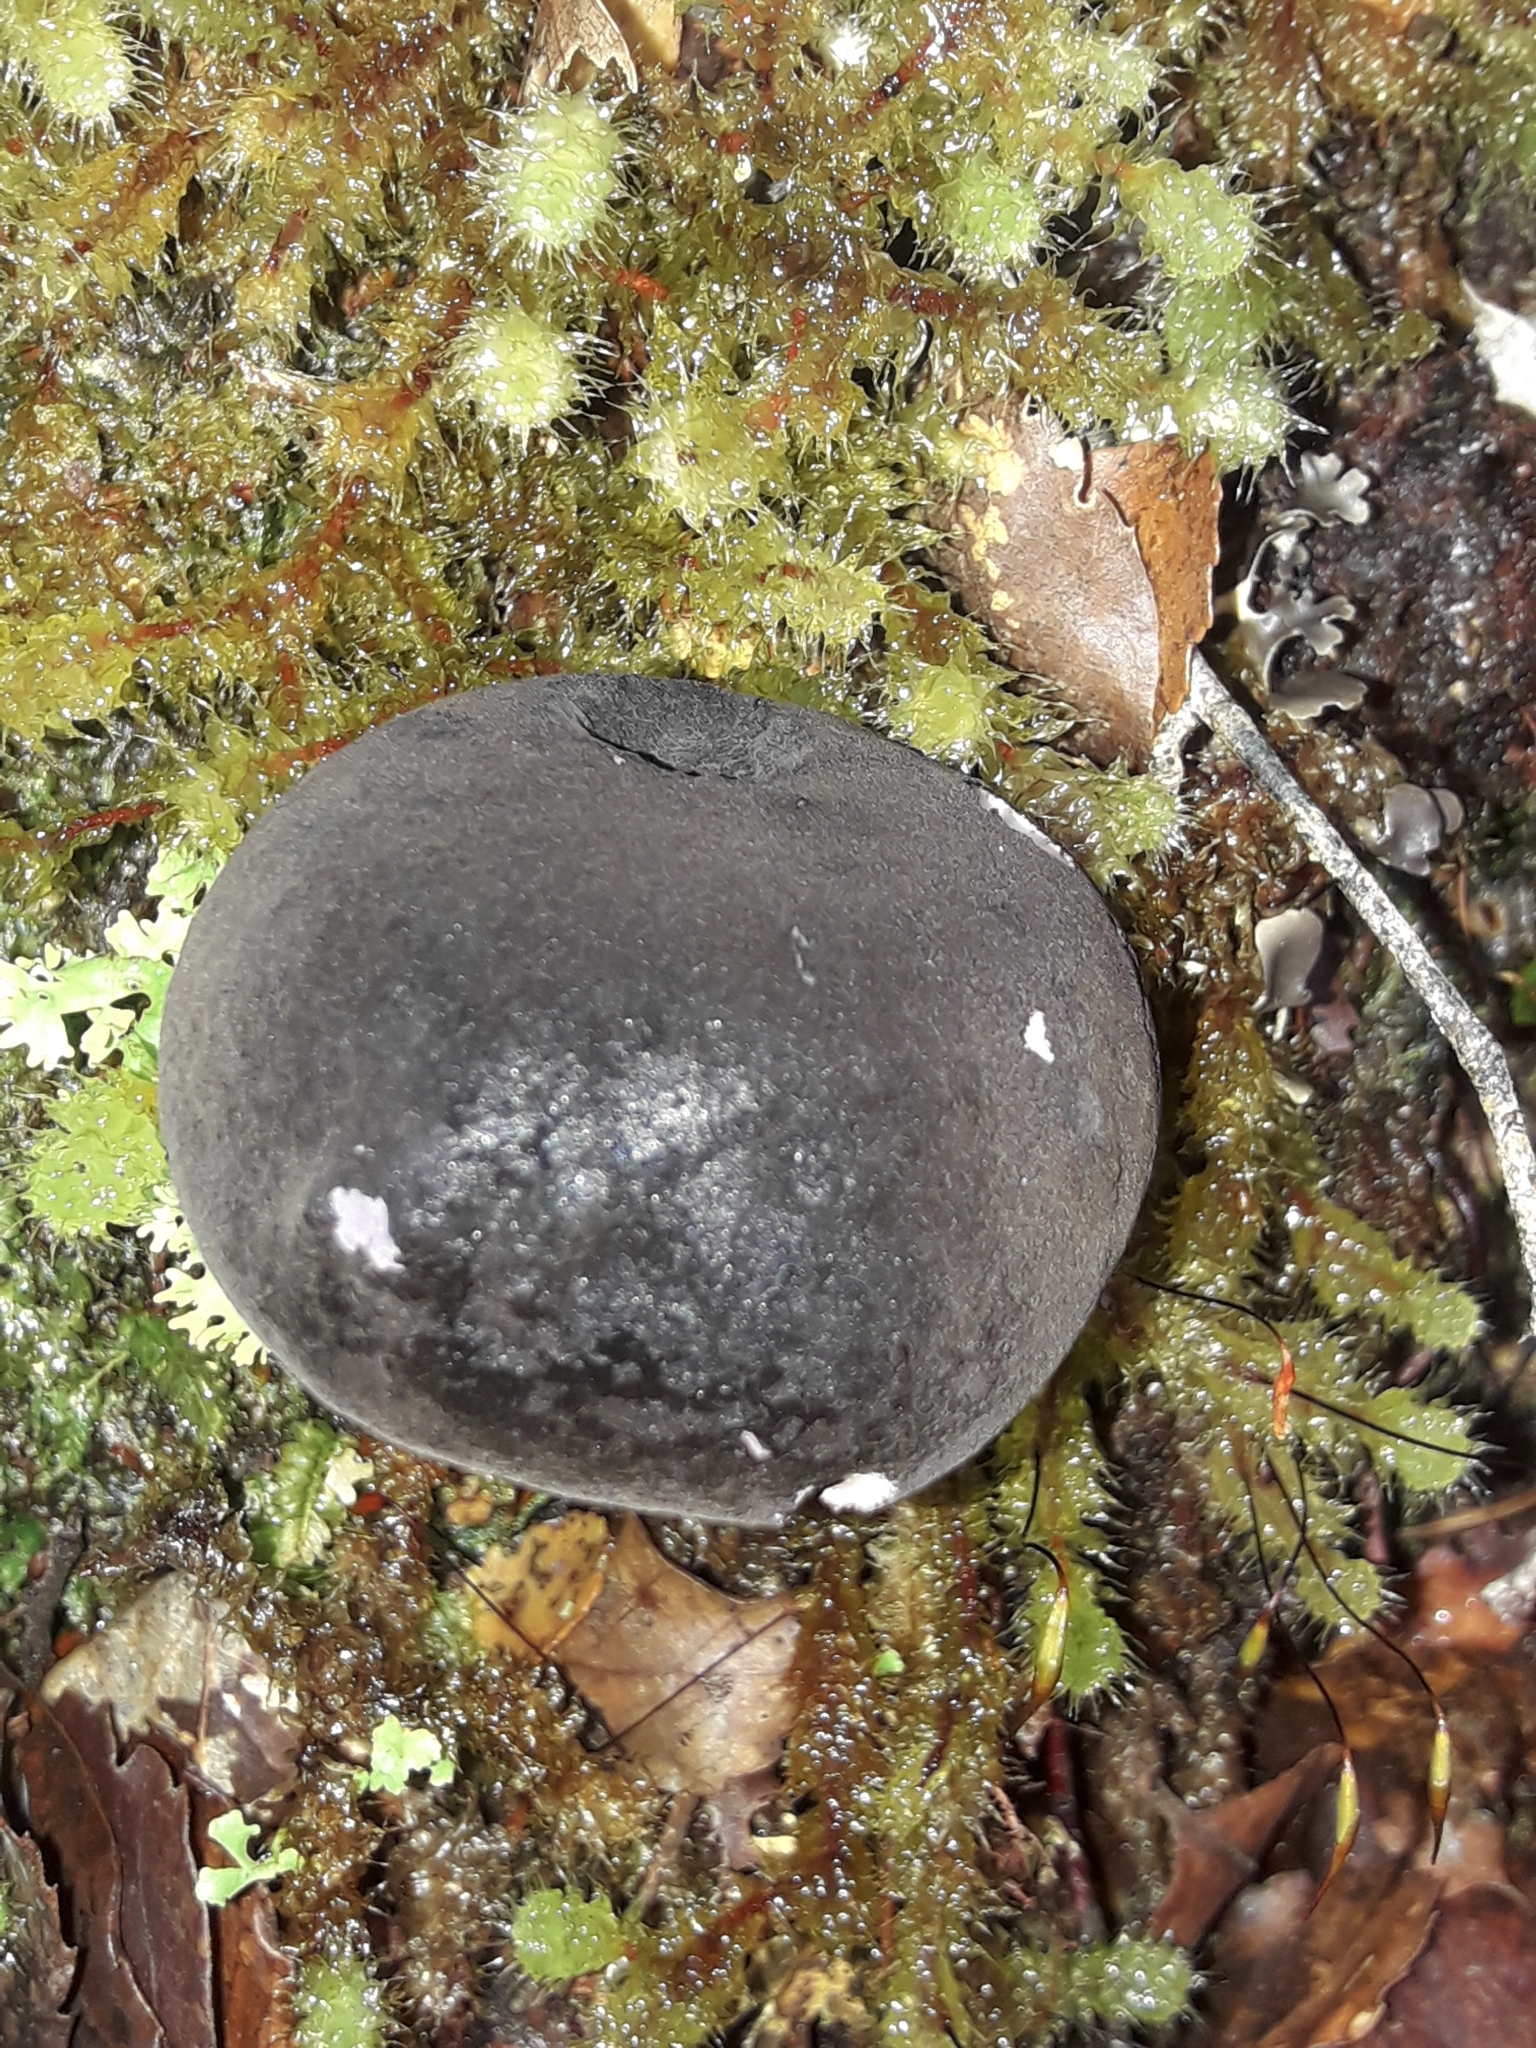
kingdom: Fungi
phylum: Basidiomycota
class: Agaricomycetes
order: Boletales
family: Boletaceae
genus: Porphyrellus
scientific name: Porphyrellus formosus
